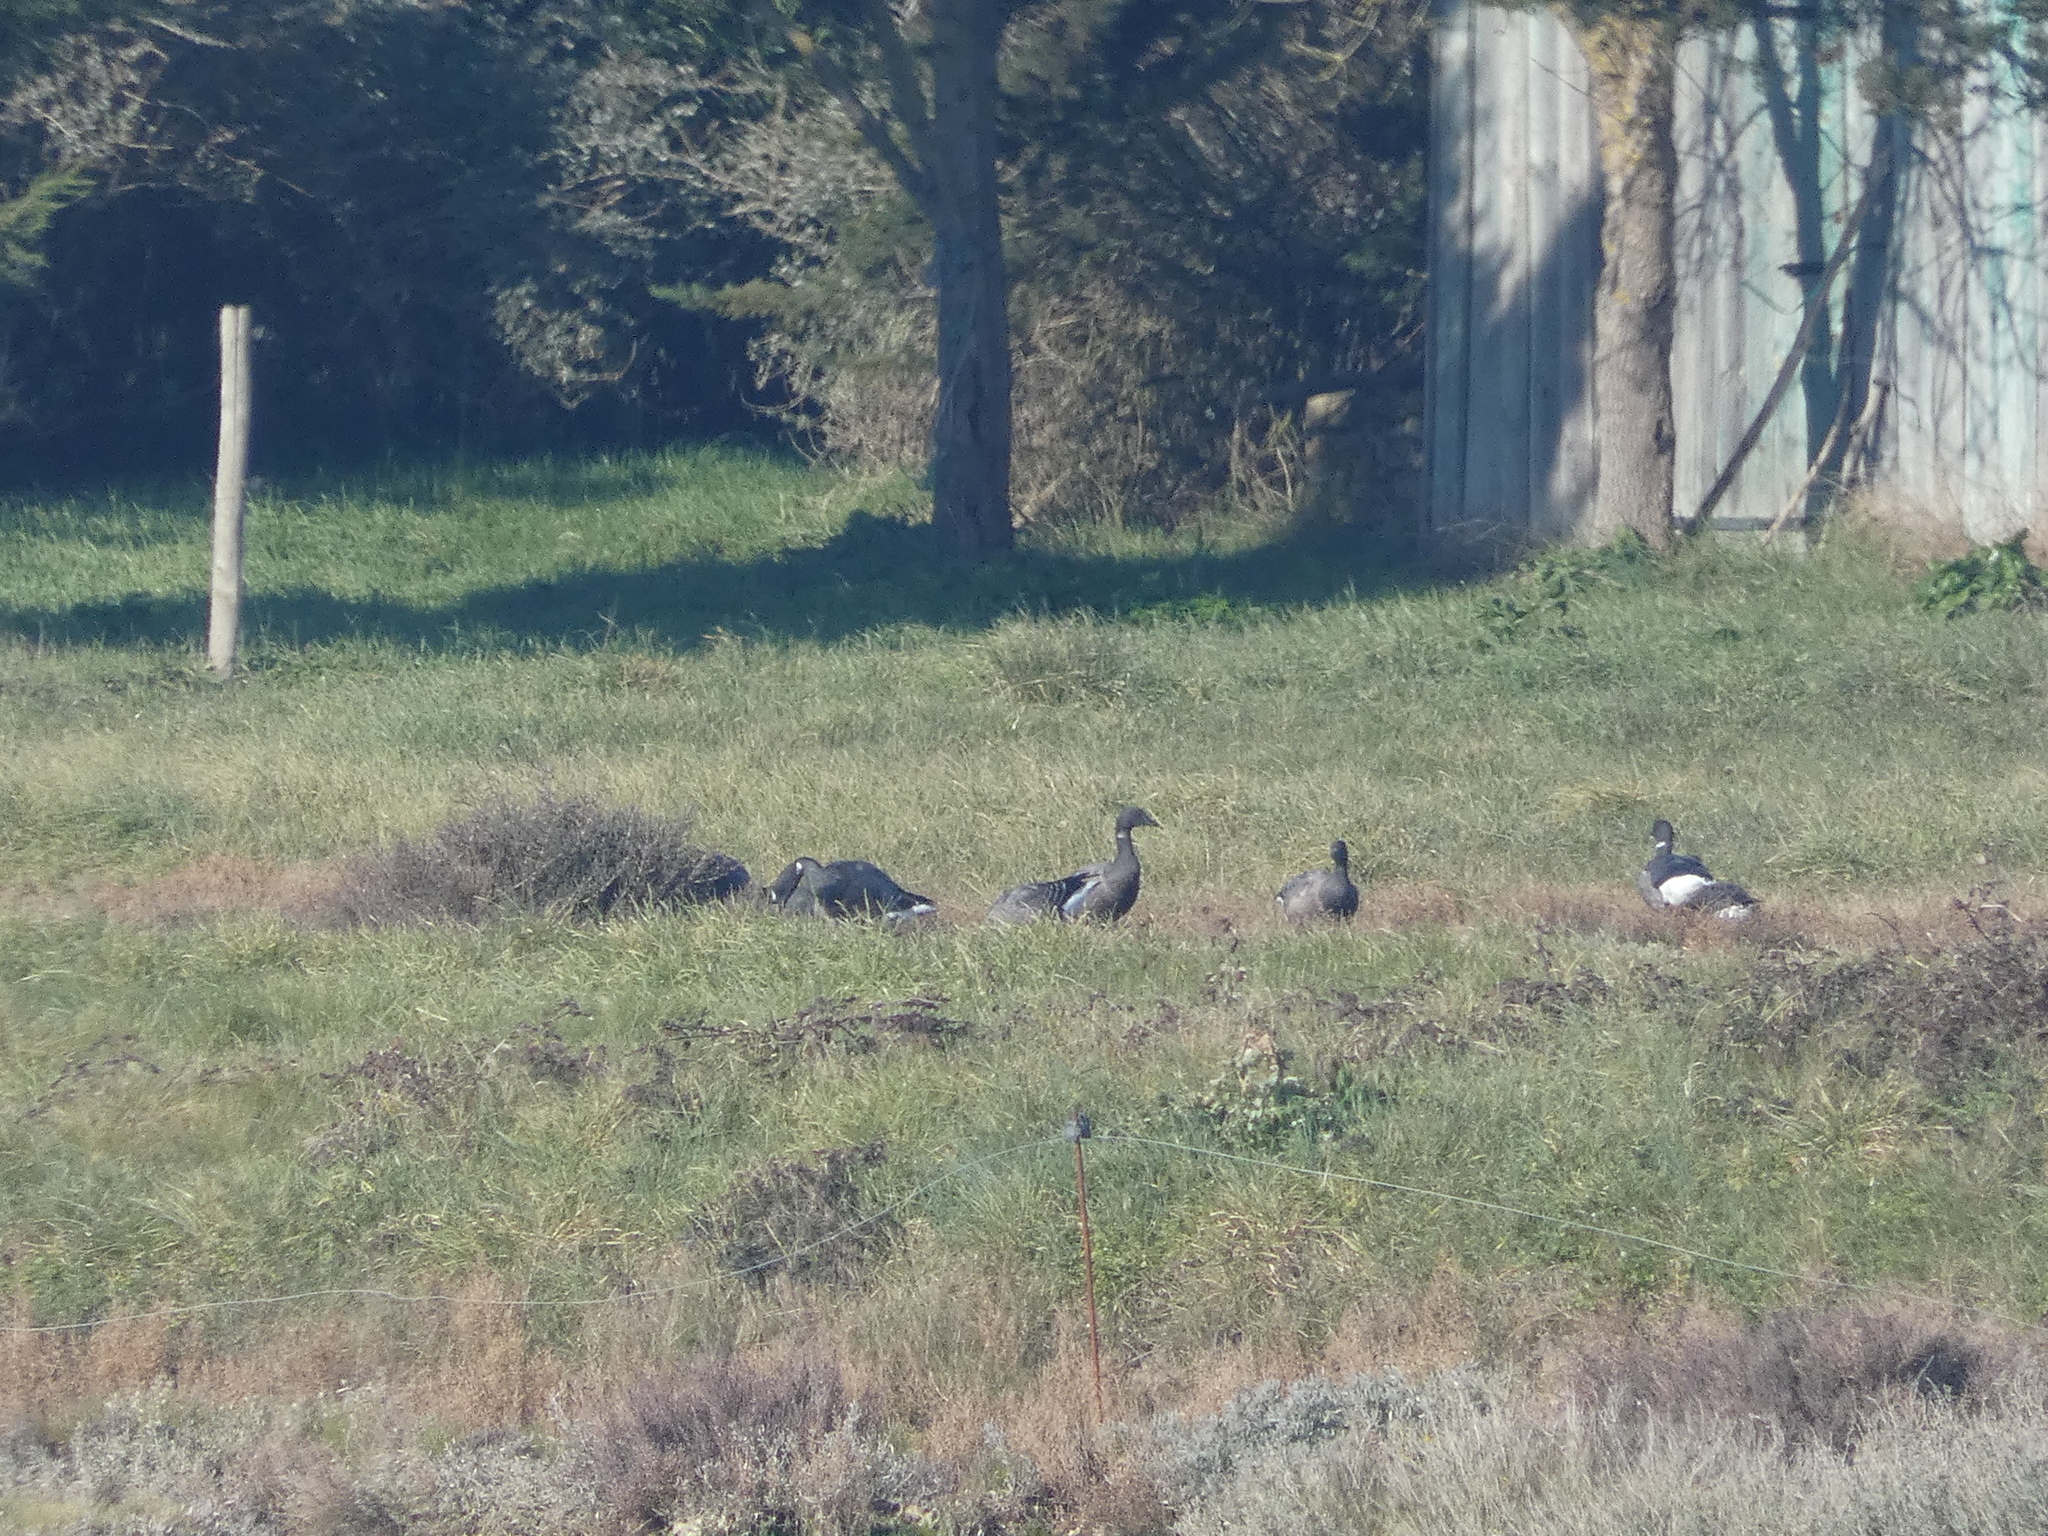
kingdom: Animalia
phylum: Chordata
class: Aves
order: Anseriformes
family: Anatidae
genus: Branta
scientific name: Branta bernicla
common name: Brant goose
